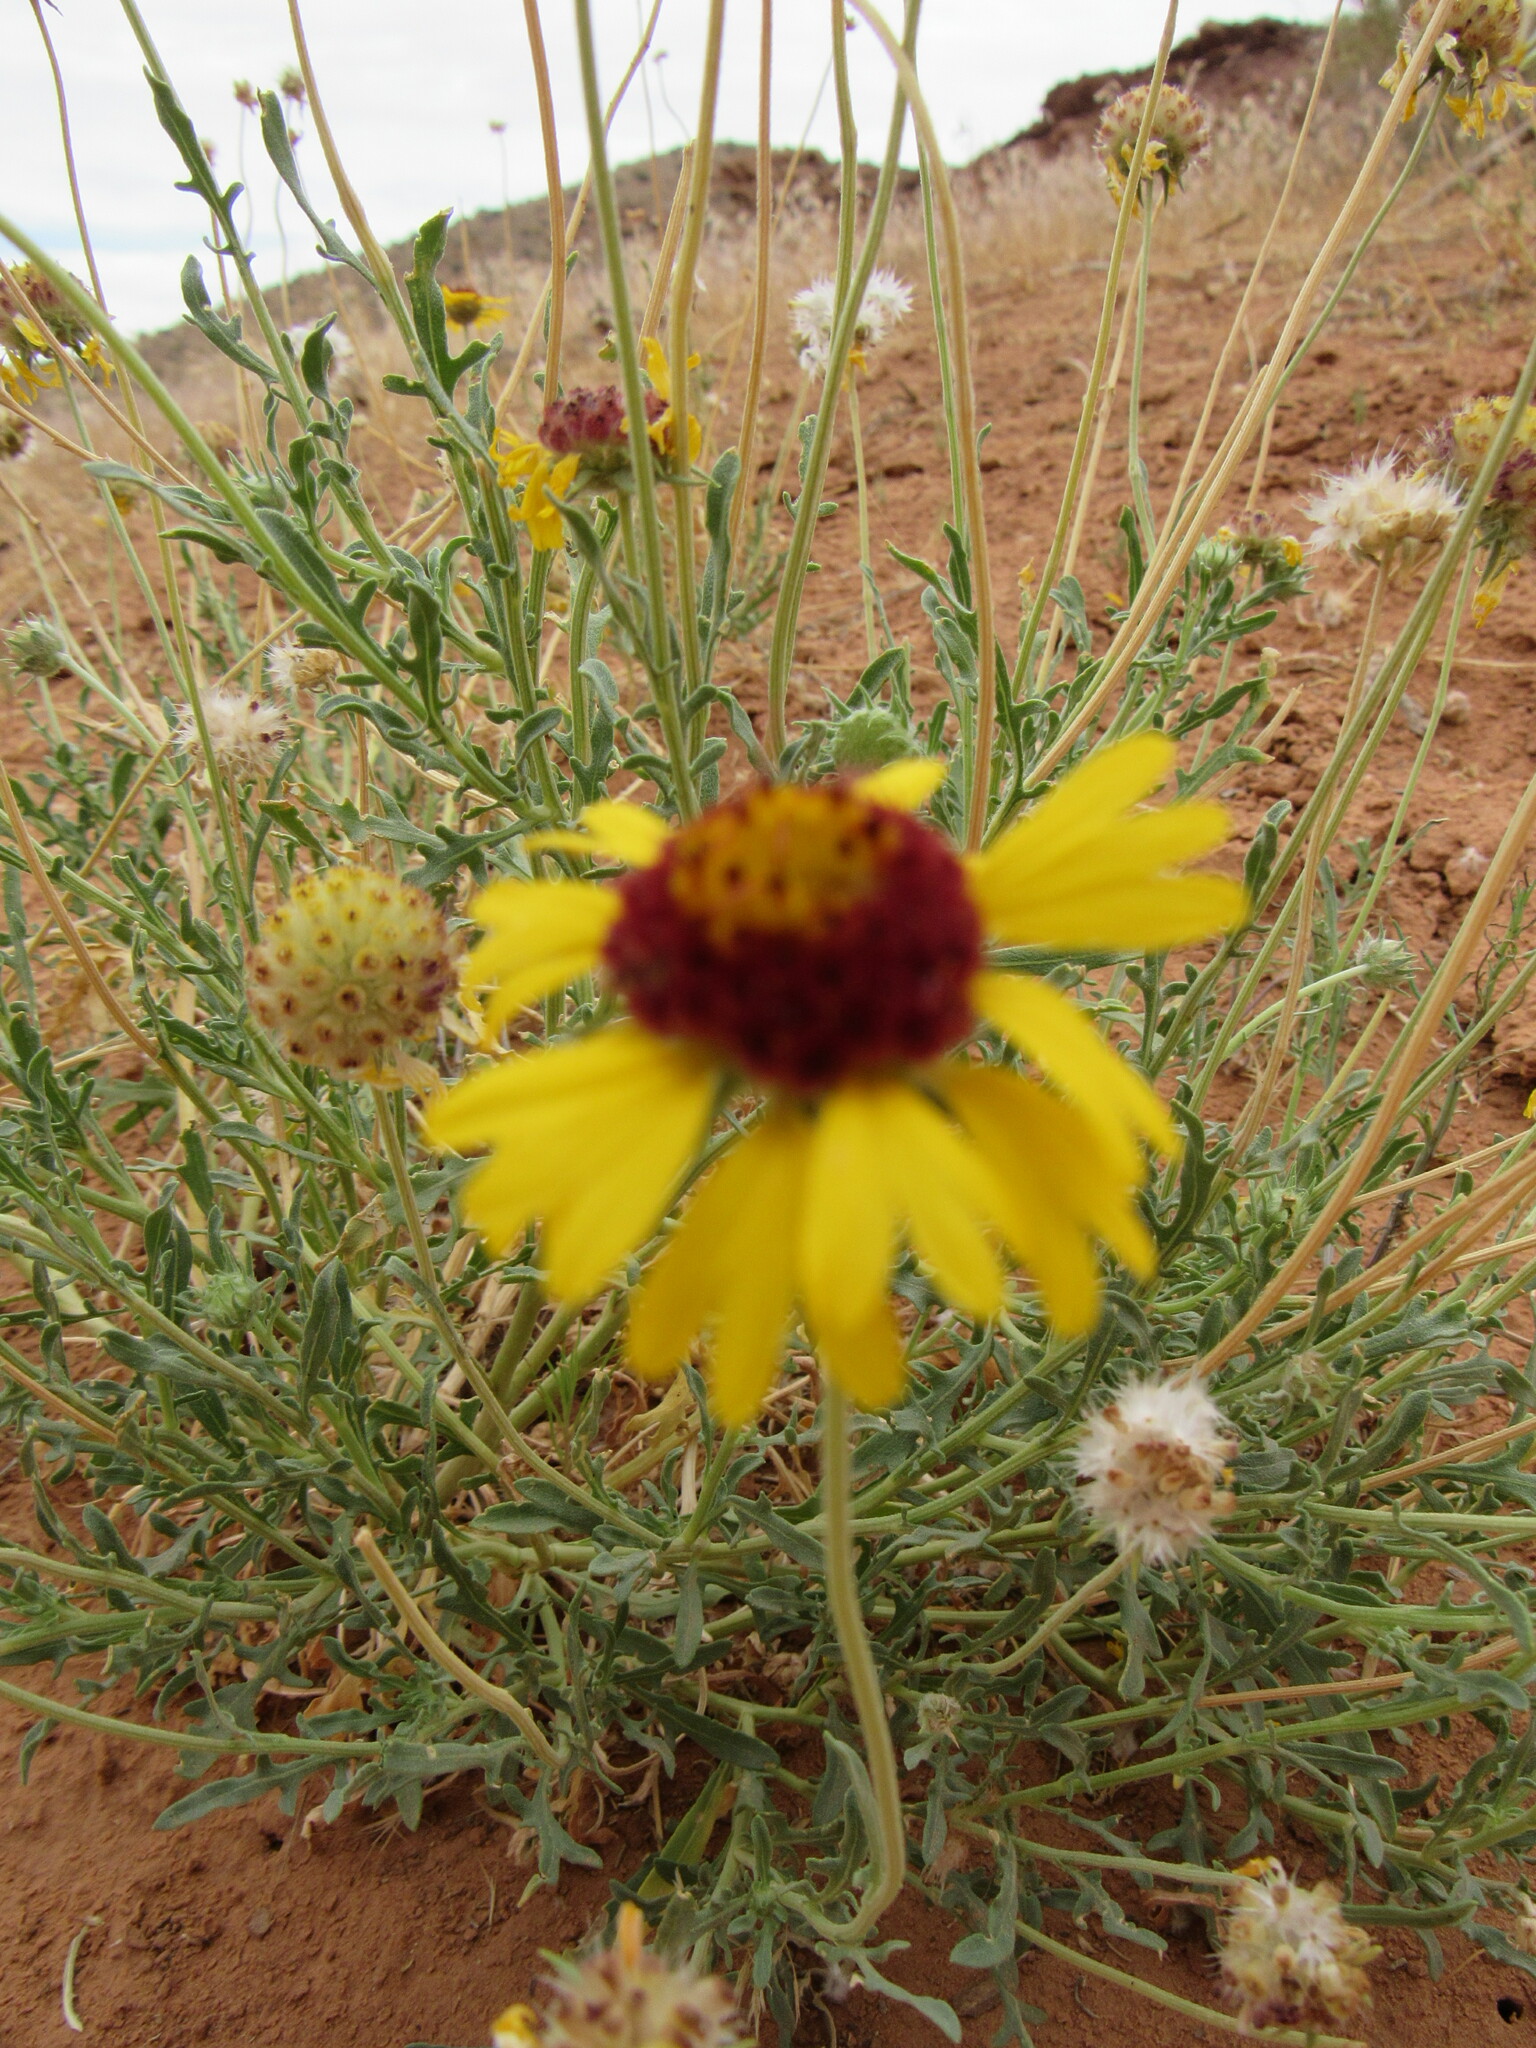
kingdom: Plantae
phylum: Tracheophyta
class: Magnoliopsida
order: Asterales
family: Asteraceae
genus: Gaillardia
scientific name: Gaillardia pinnatifida
